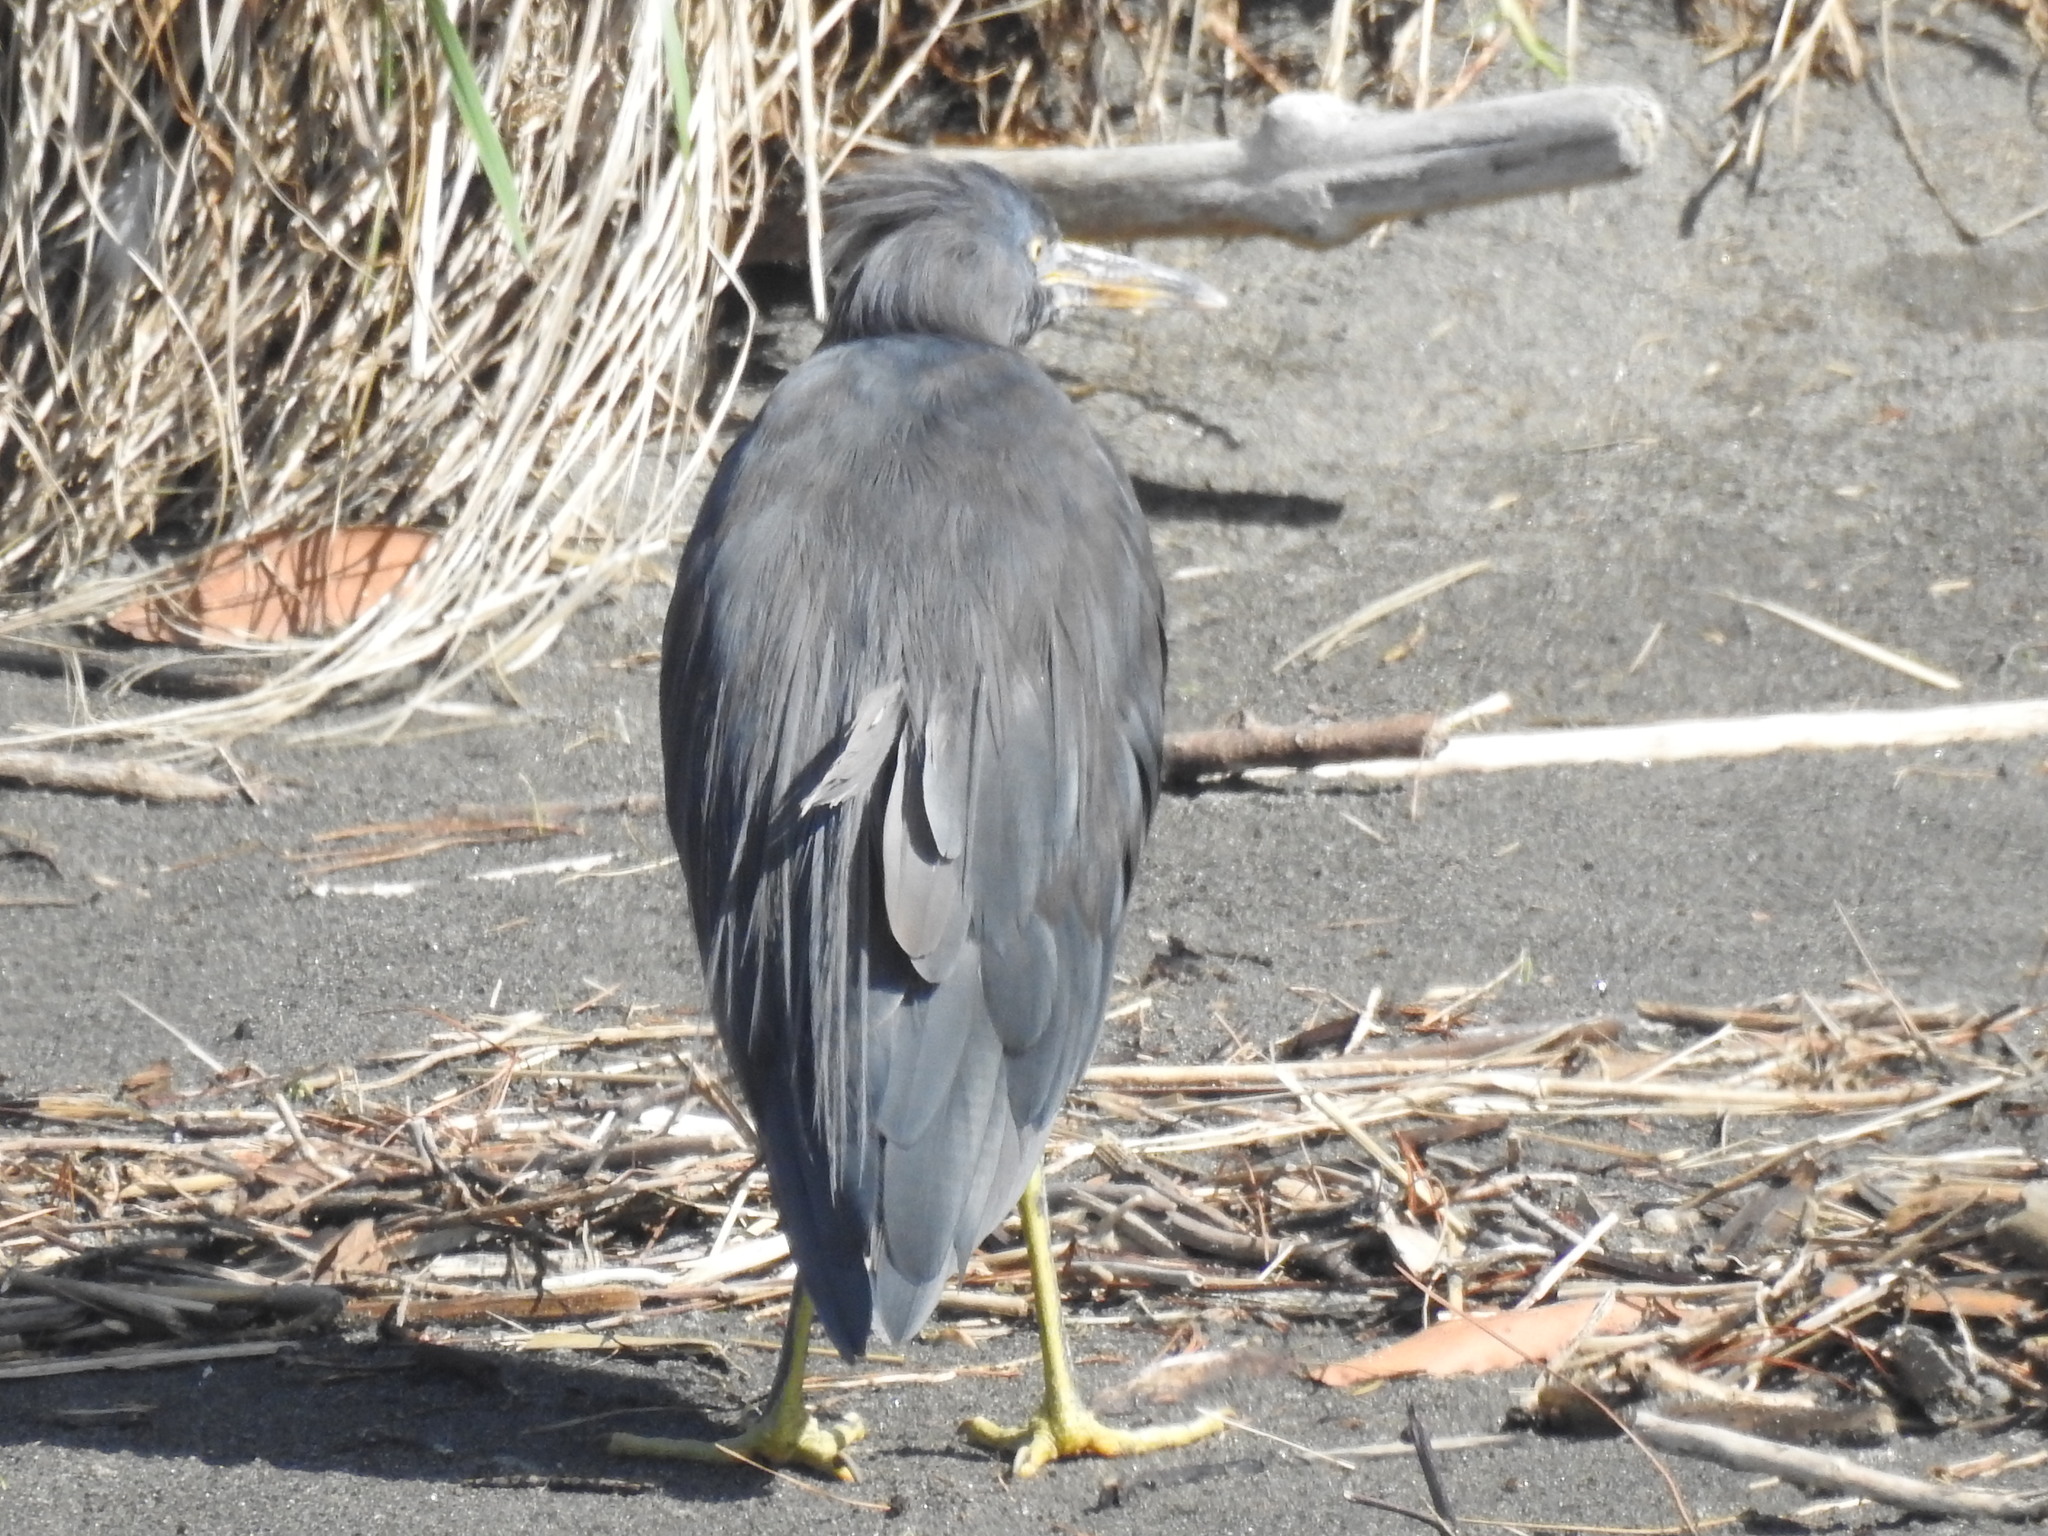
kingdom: Animalia
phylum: Chordata
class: Aves
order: Pelecaniformes
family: Ardeidae
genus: Egretta
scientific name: Egretta sacra
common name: Pacific reef heron
